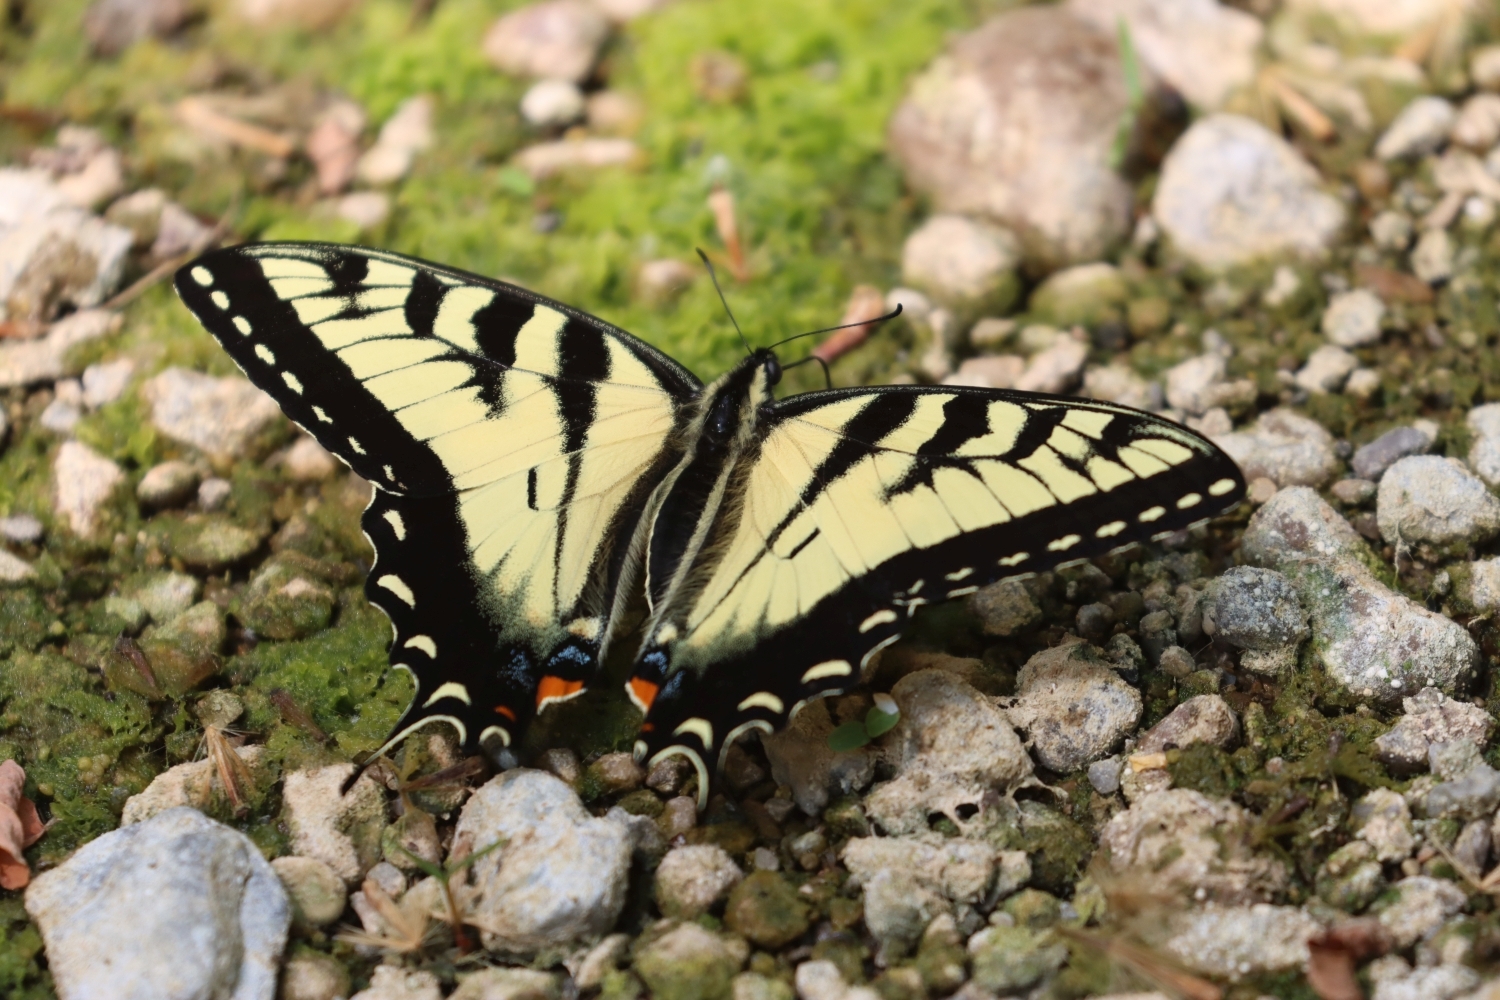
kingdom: Animalia
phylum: Arthropoda
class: Insecta
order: Lepidoptera
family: Papilionidae
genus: Papilio
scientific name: Papilio glaucus
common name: Tiger swallowtail
